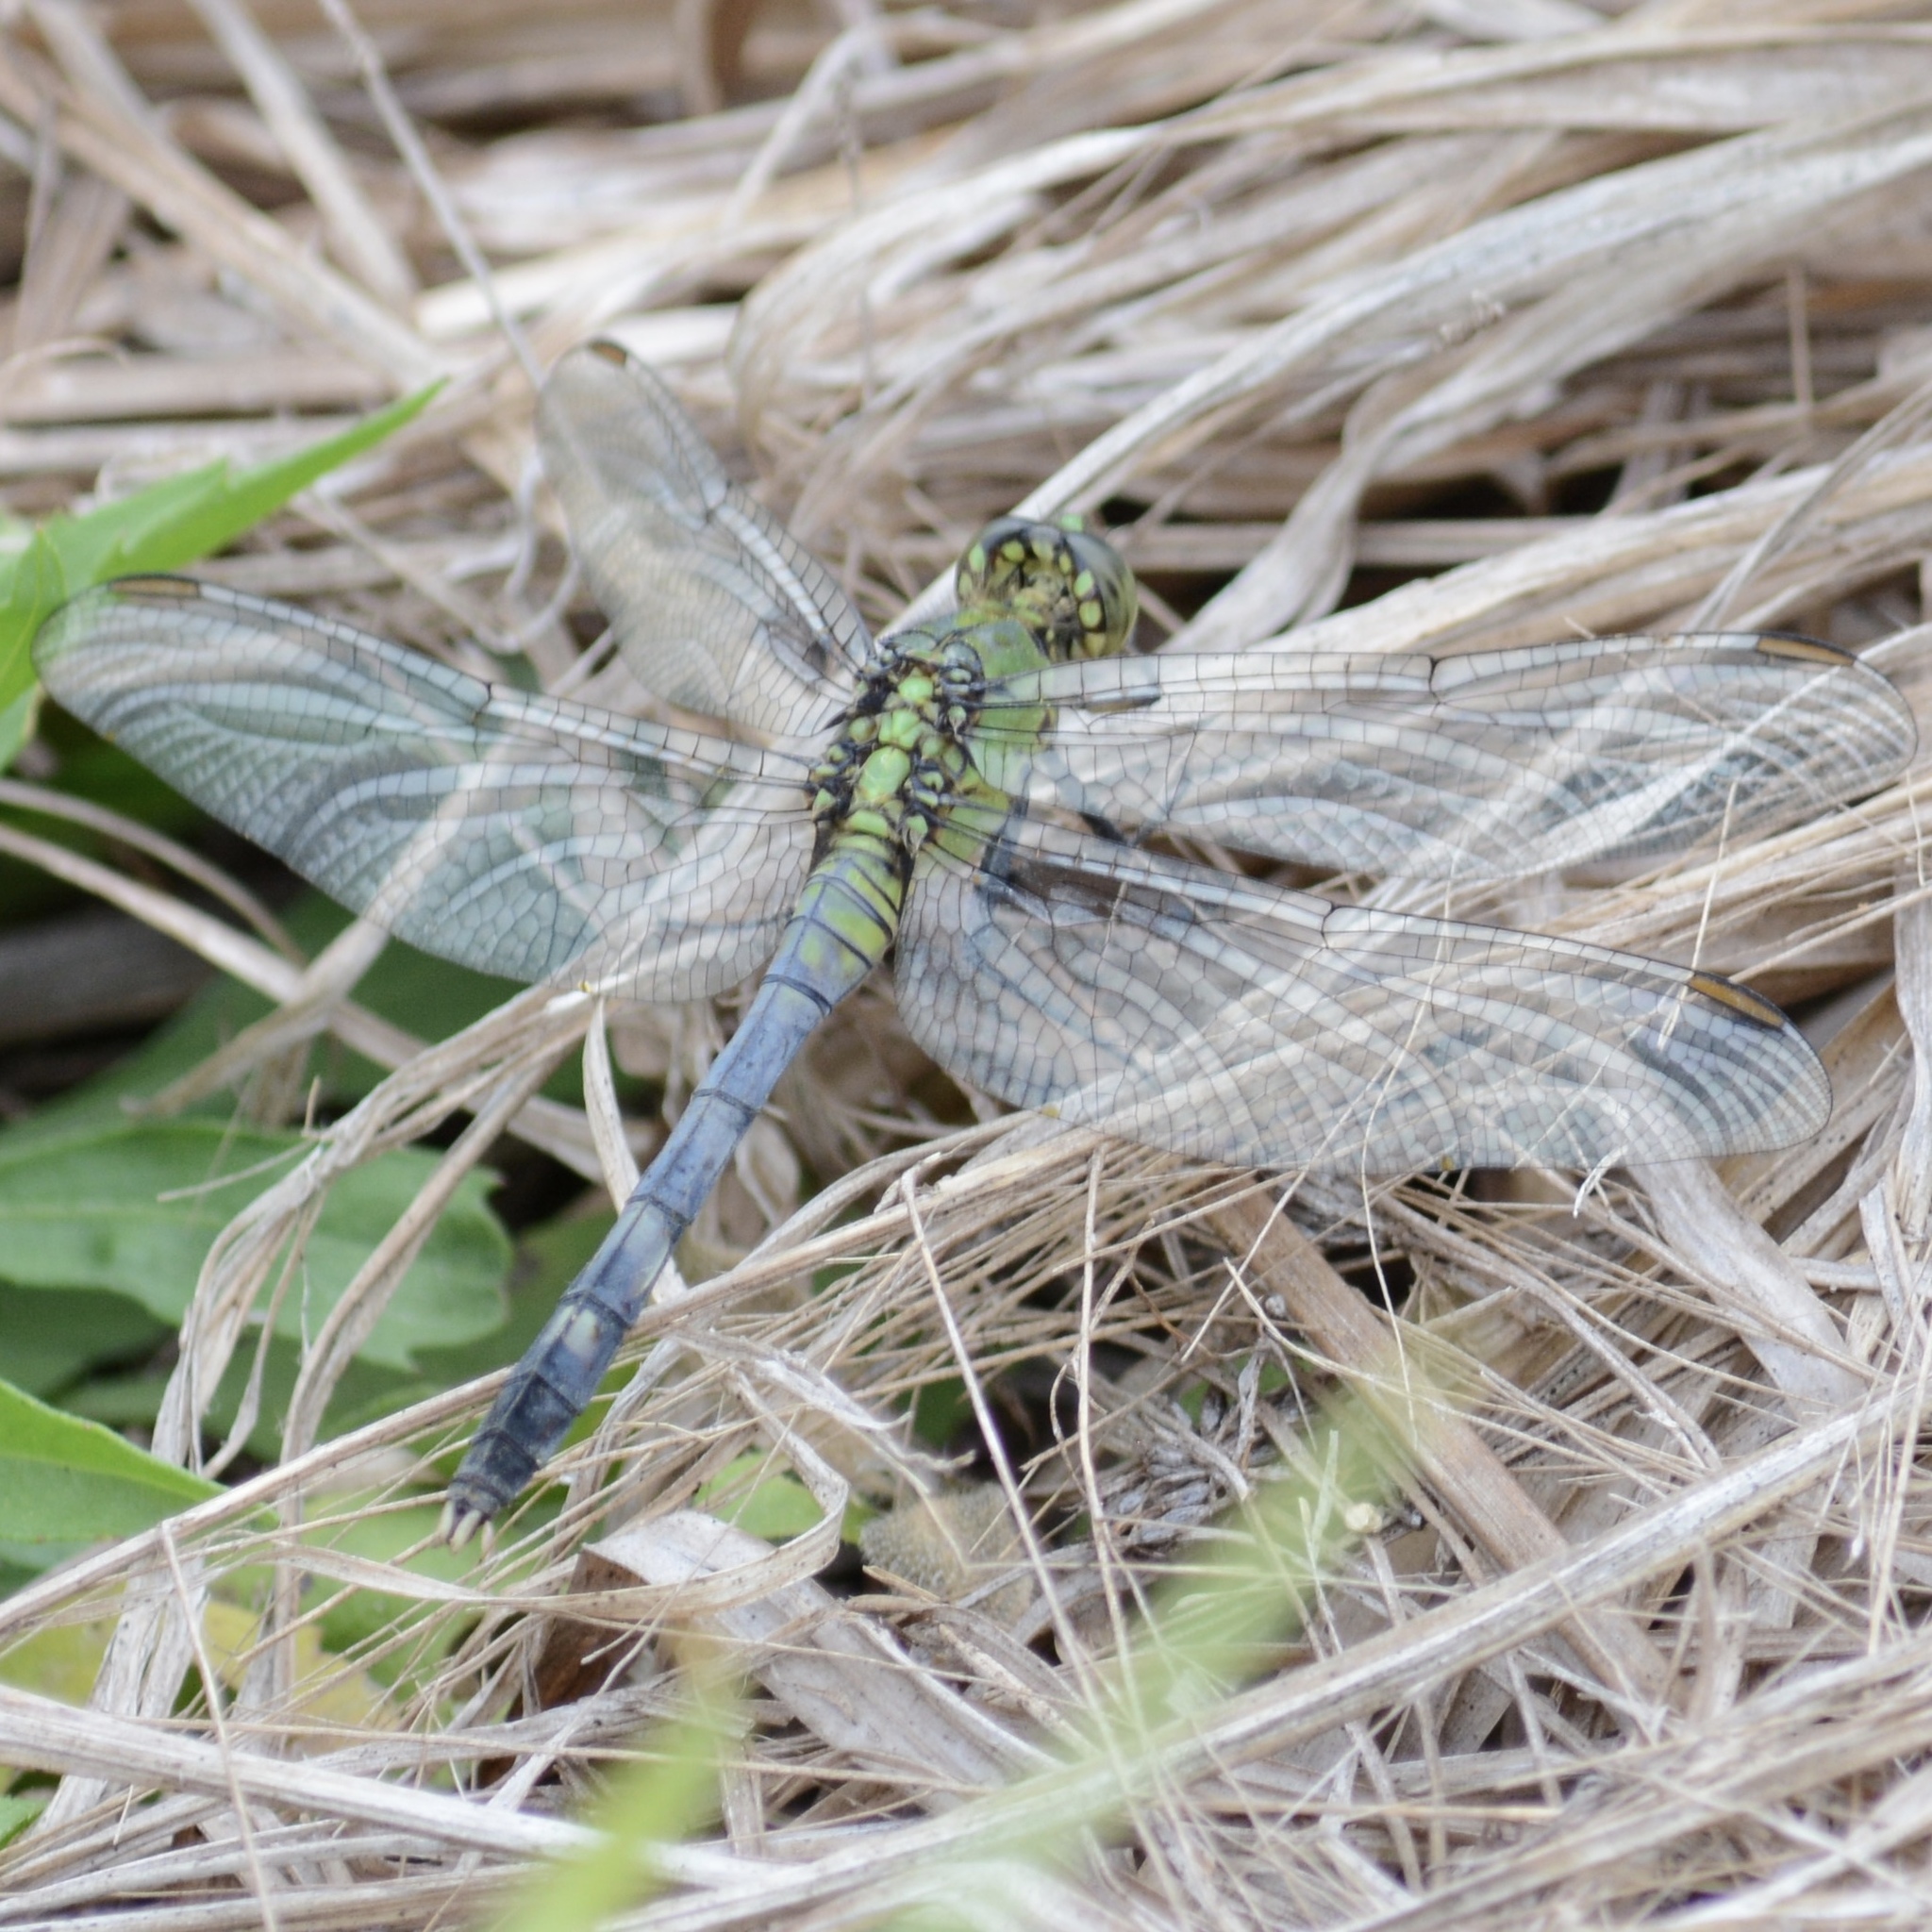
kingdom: Animalia
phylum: Arthropoda
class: Insecta
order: Odonata
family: Libellulidae
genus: Erythemis
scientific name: Erythemis simplicicollis
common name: Eastern pondhawk
